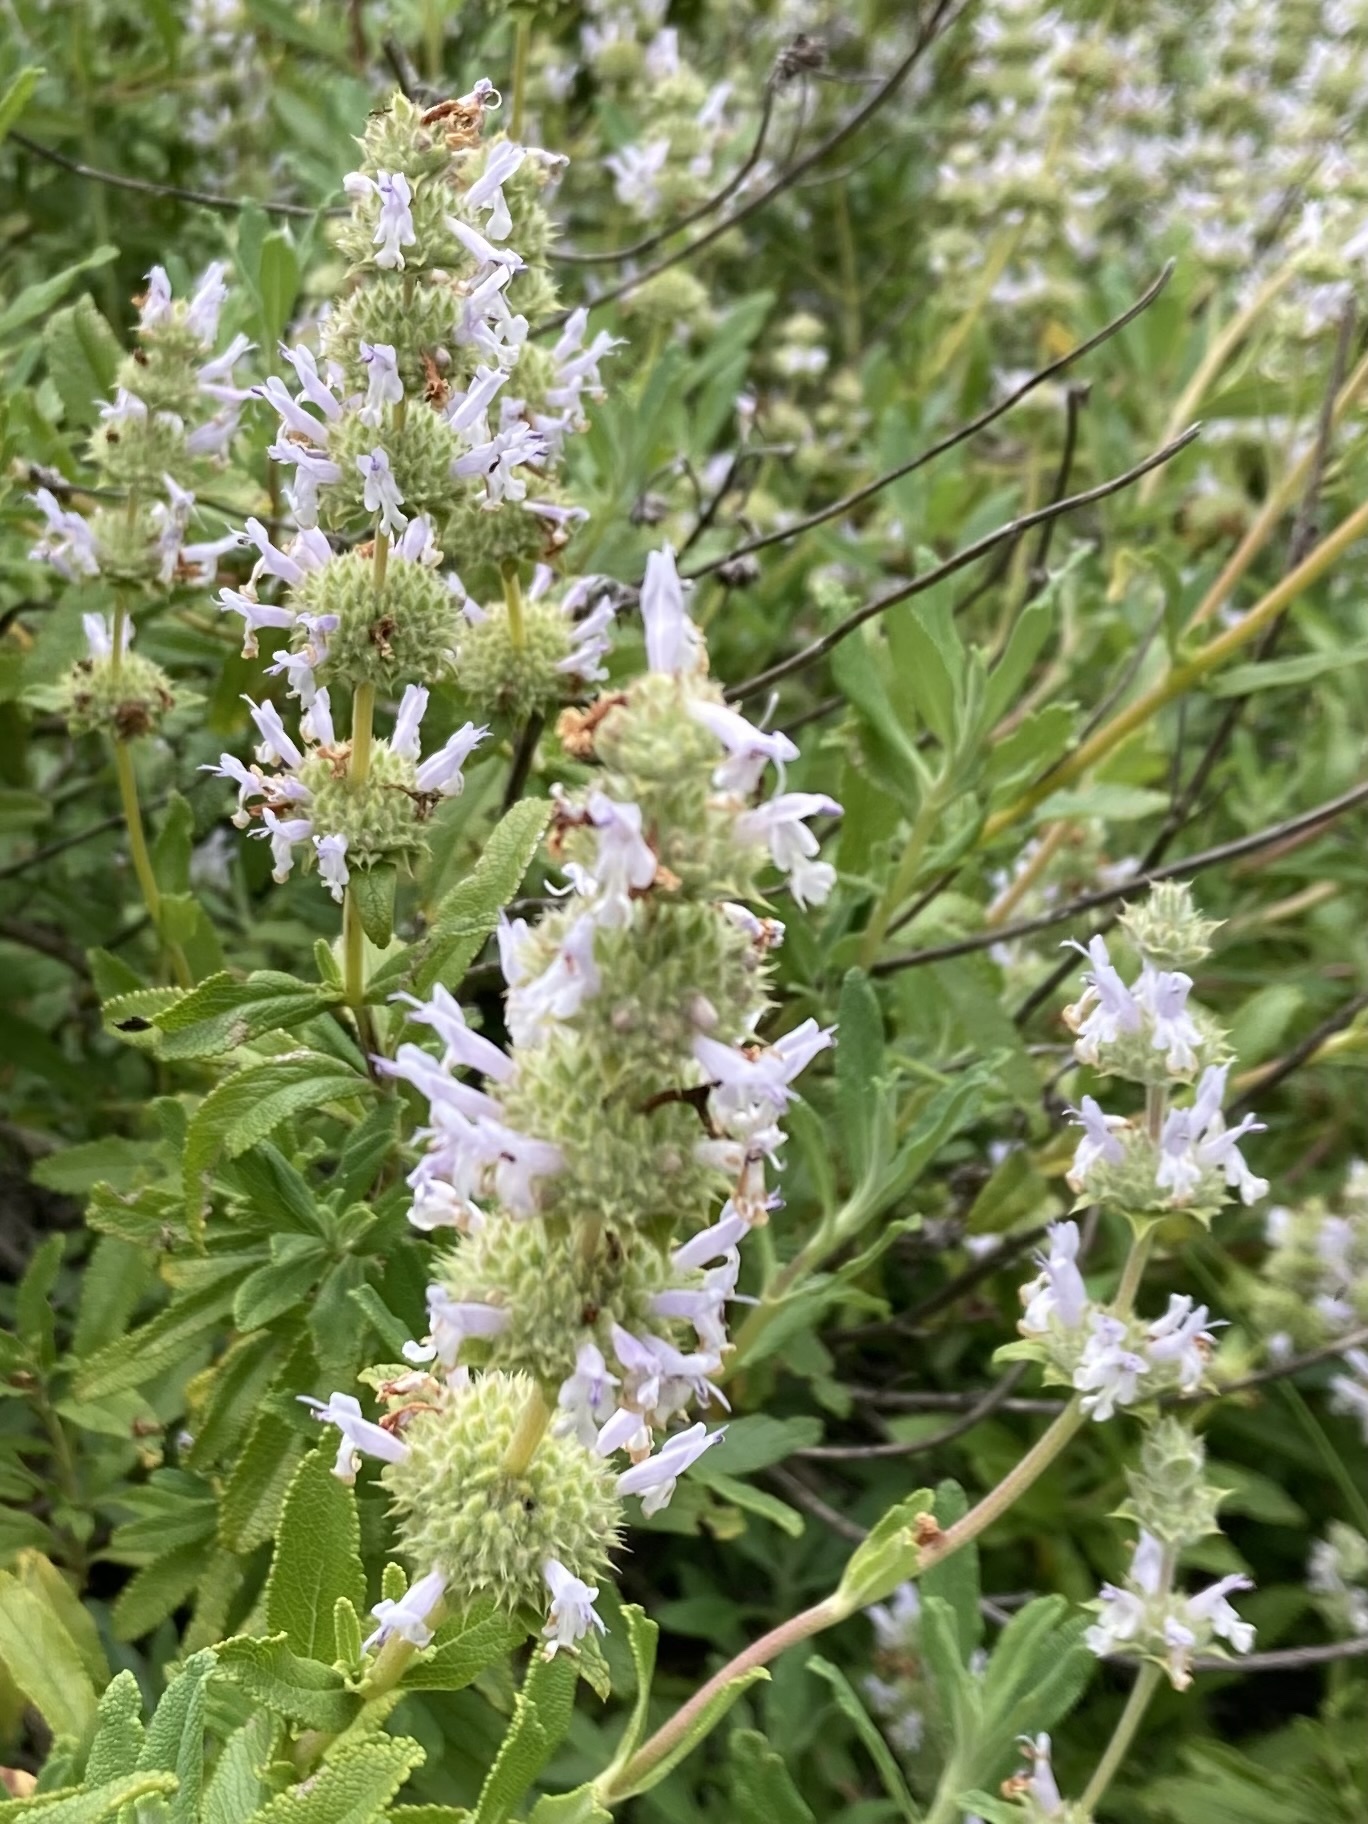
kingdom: Plantae
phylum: Tracheophyta
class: Magnoliopsida
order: Lamiales
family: Lamiaceae
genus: Salvia
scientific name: Salvia mellifera
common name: Black sage
